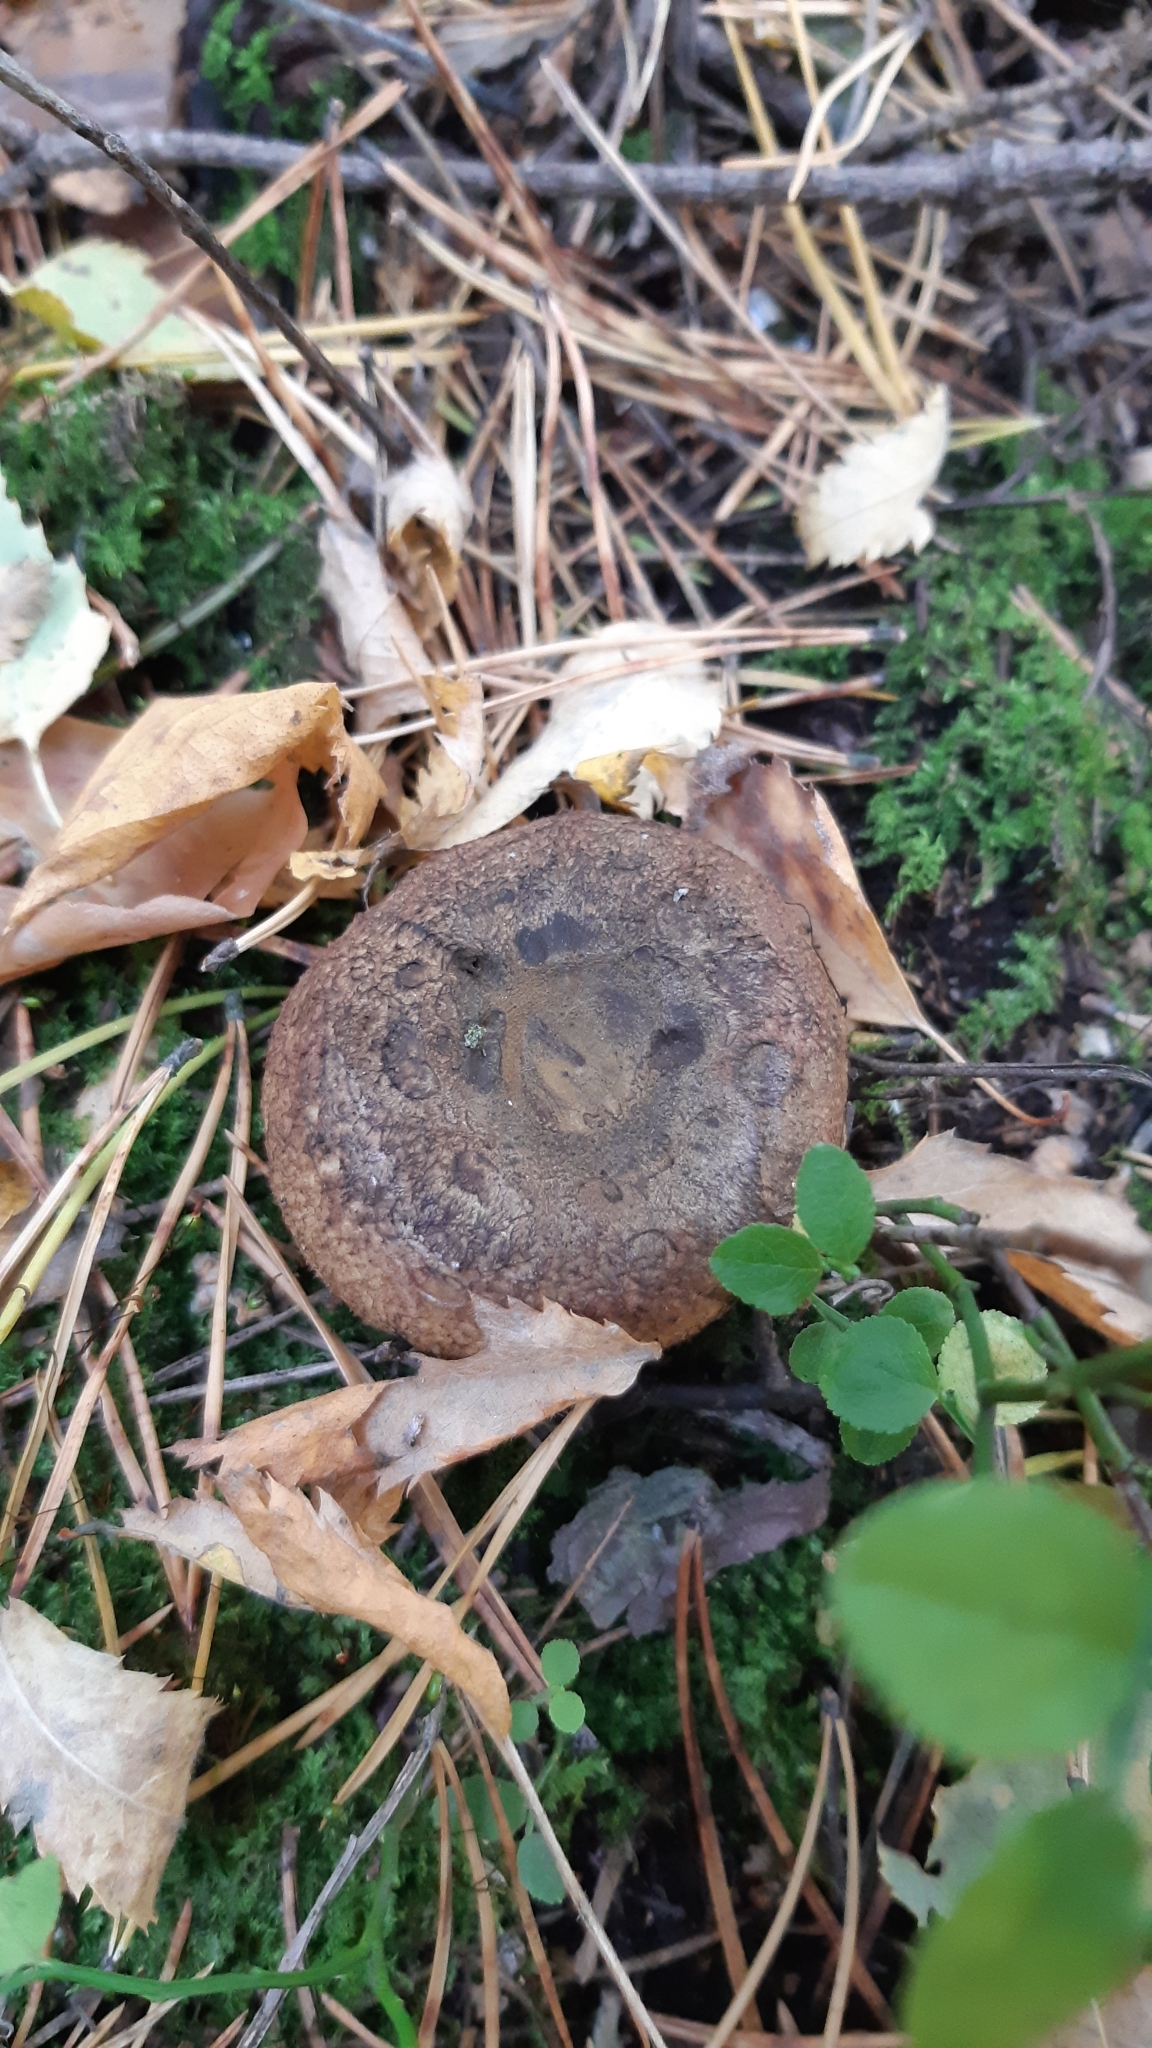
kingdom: Fungi
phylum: Basidiomycota
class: Agaricomycetes
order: Russulales
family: Russulaceae
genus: Lactarius
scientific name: Lactarius turpis
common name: Ugly milk-cap
